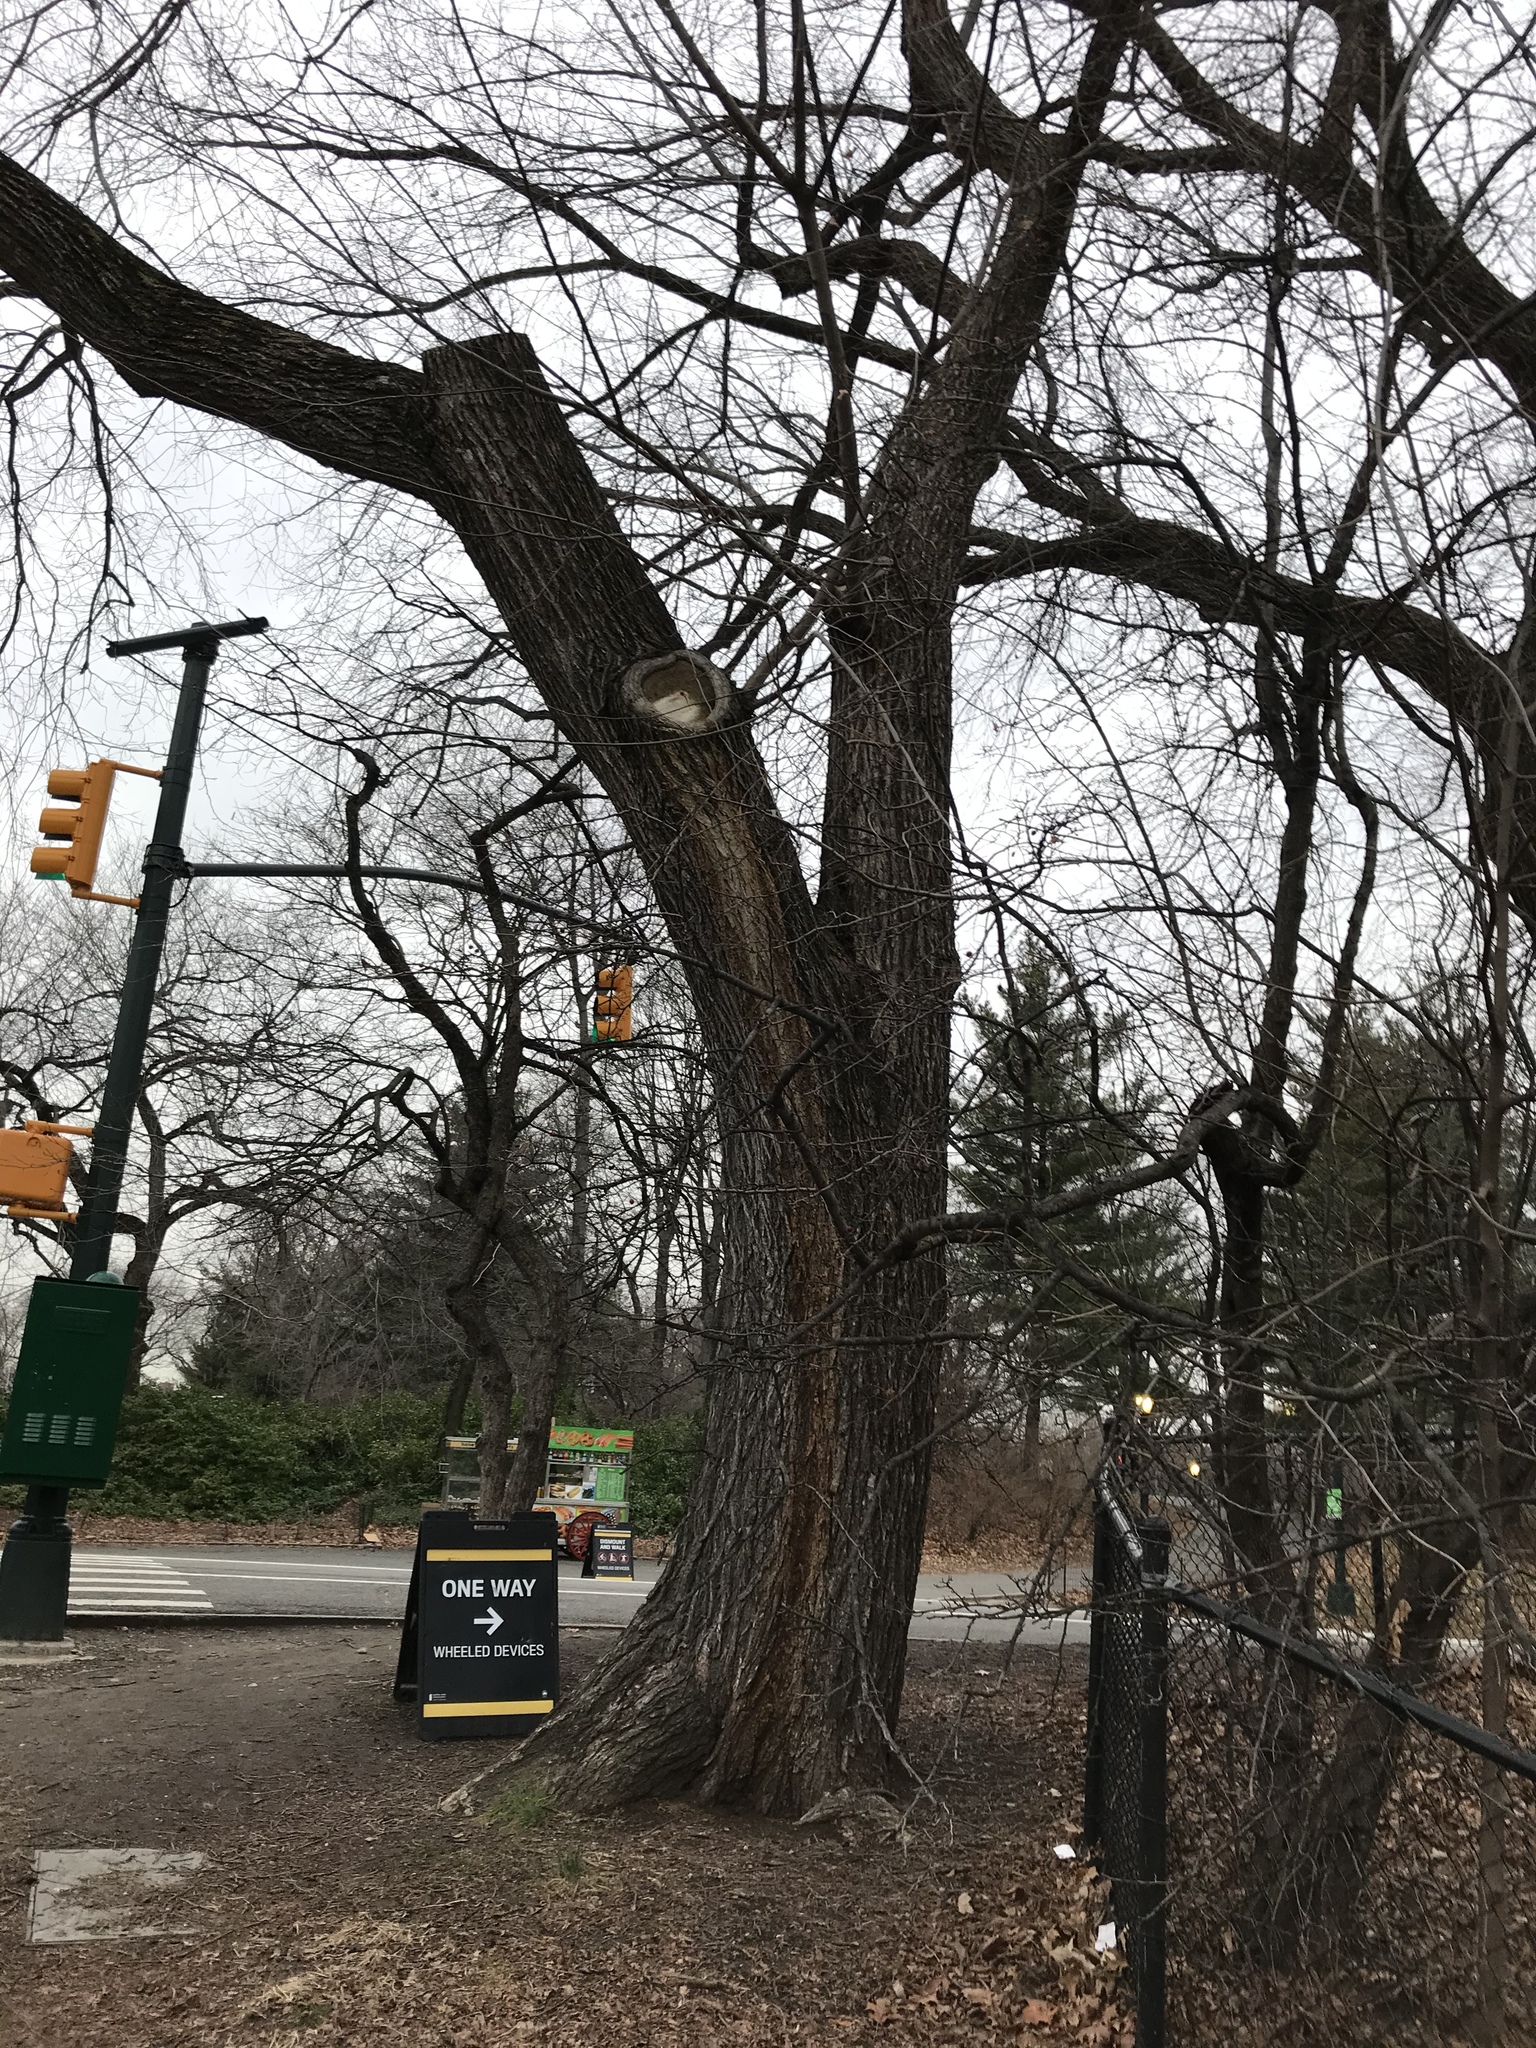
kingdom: Plantae
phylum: Tracheophyta
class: Magnoliopsida
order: Rosales
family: Ulmaceae
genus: Ulmus
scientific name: Ulmus pumila
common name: Siberian elm
